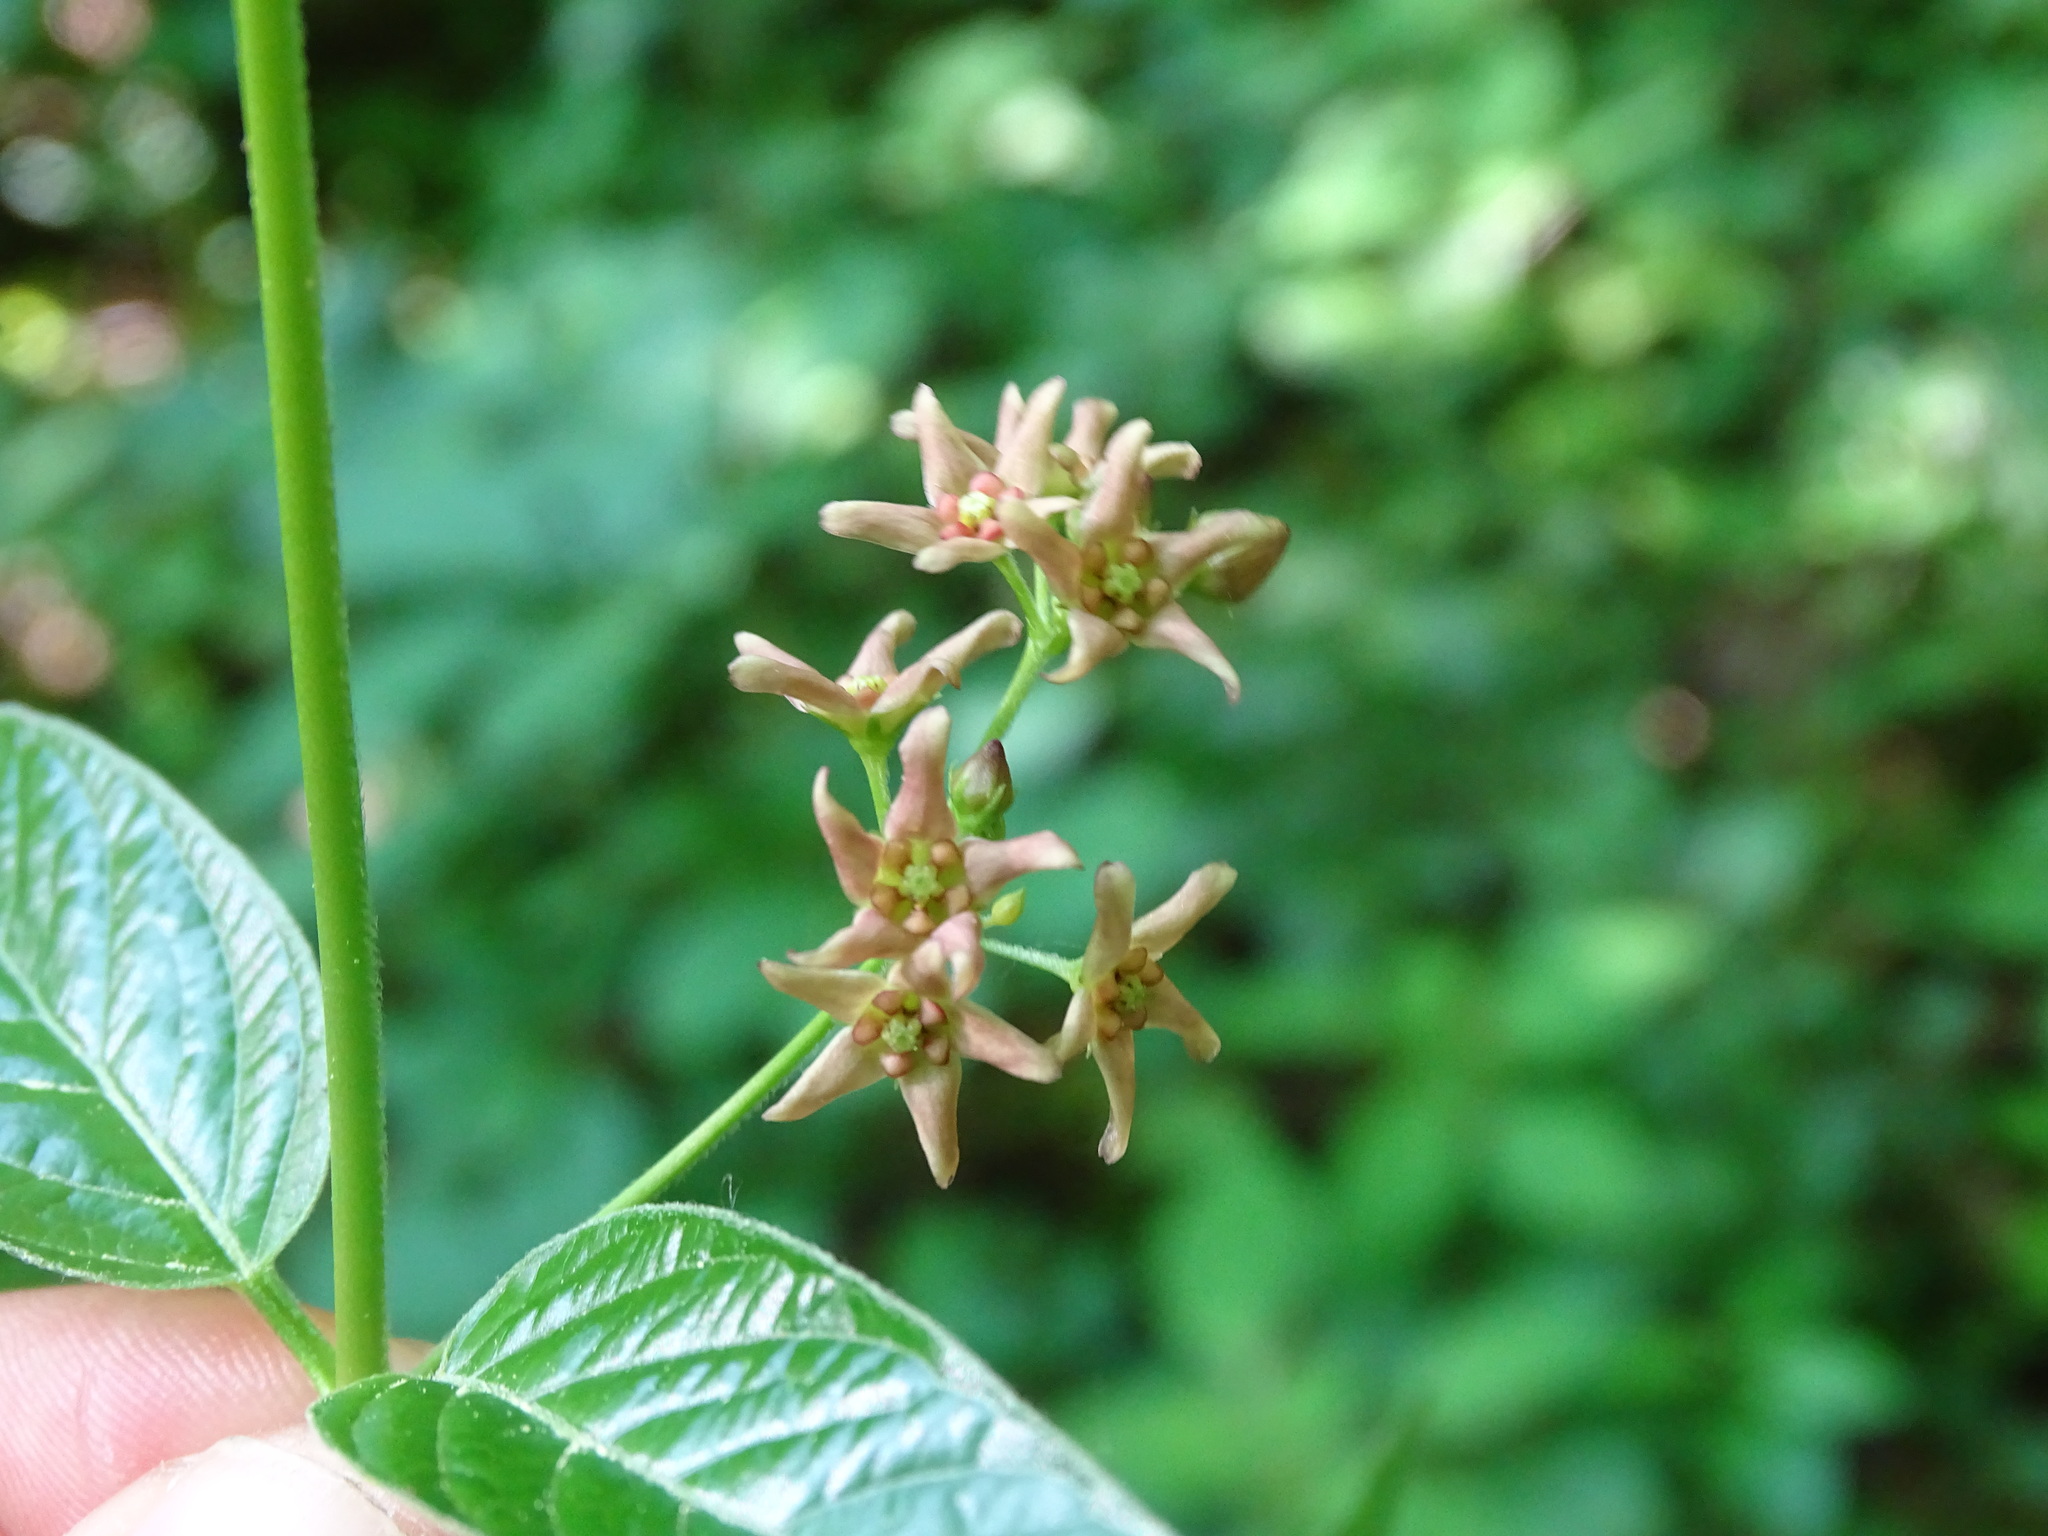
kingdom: Plantae
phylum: Tracheophyta
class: Magnoliopsida
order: Gentianales
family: Apocynaceae
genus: Vincetoxicum
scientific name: Vincetoxicum rossicum
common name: Dog-strangling vine
